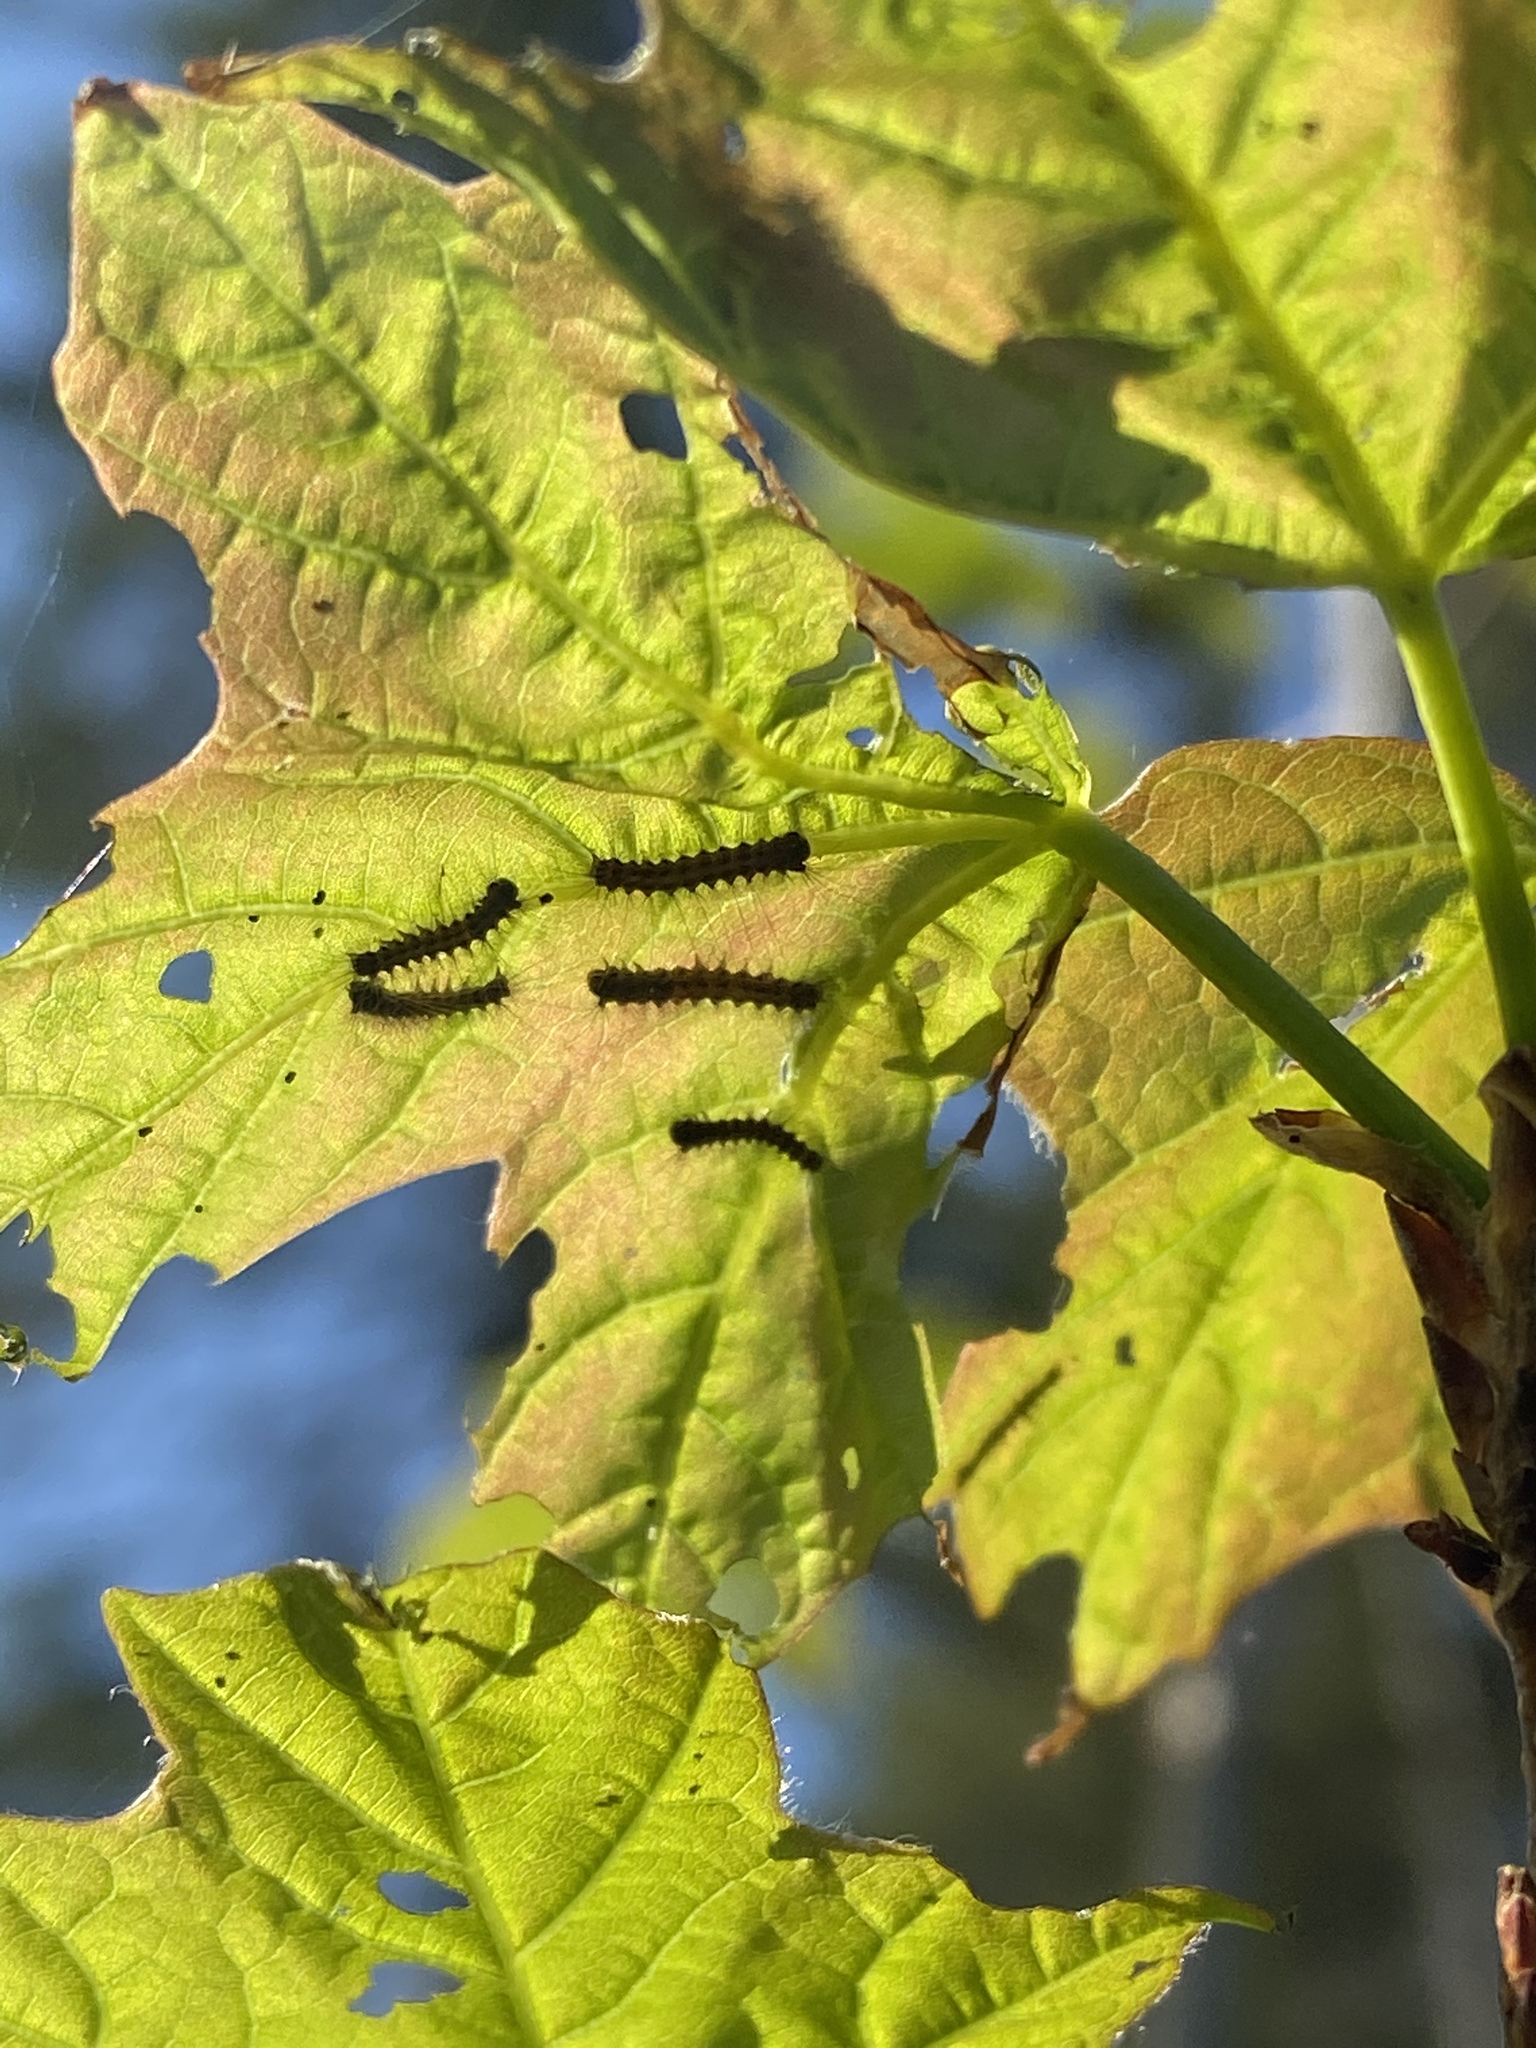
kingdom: Animalia
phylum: Arthropoda
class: Insecta
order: Lepidoptera
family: Erebidae
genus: Lymantria
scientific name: Lymantria dispar
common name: Gypsy moth
